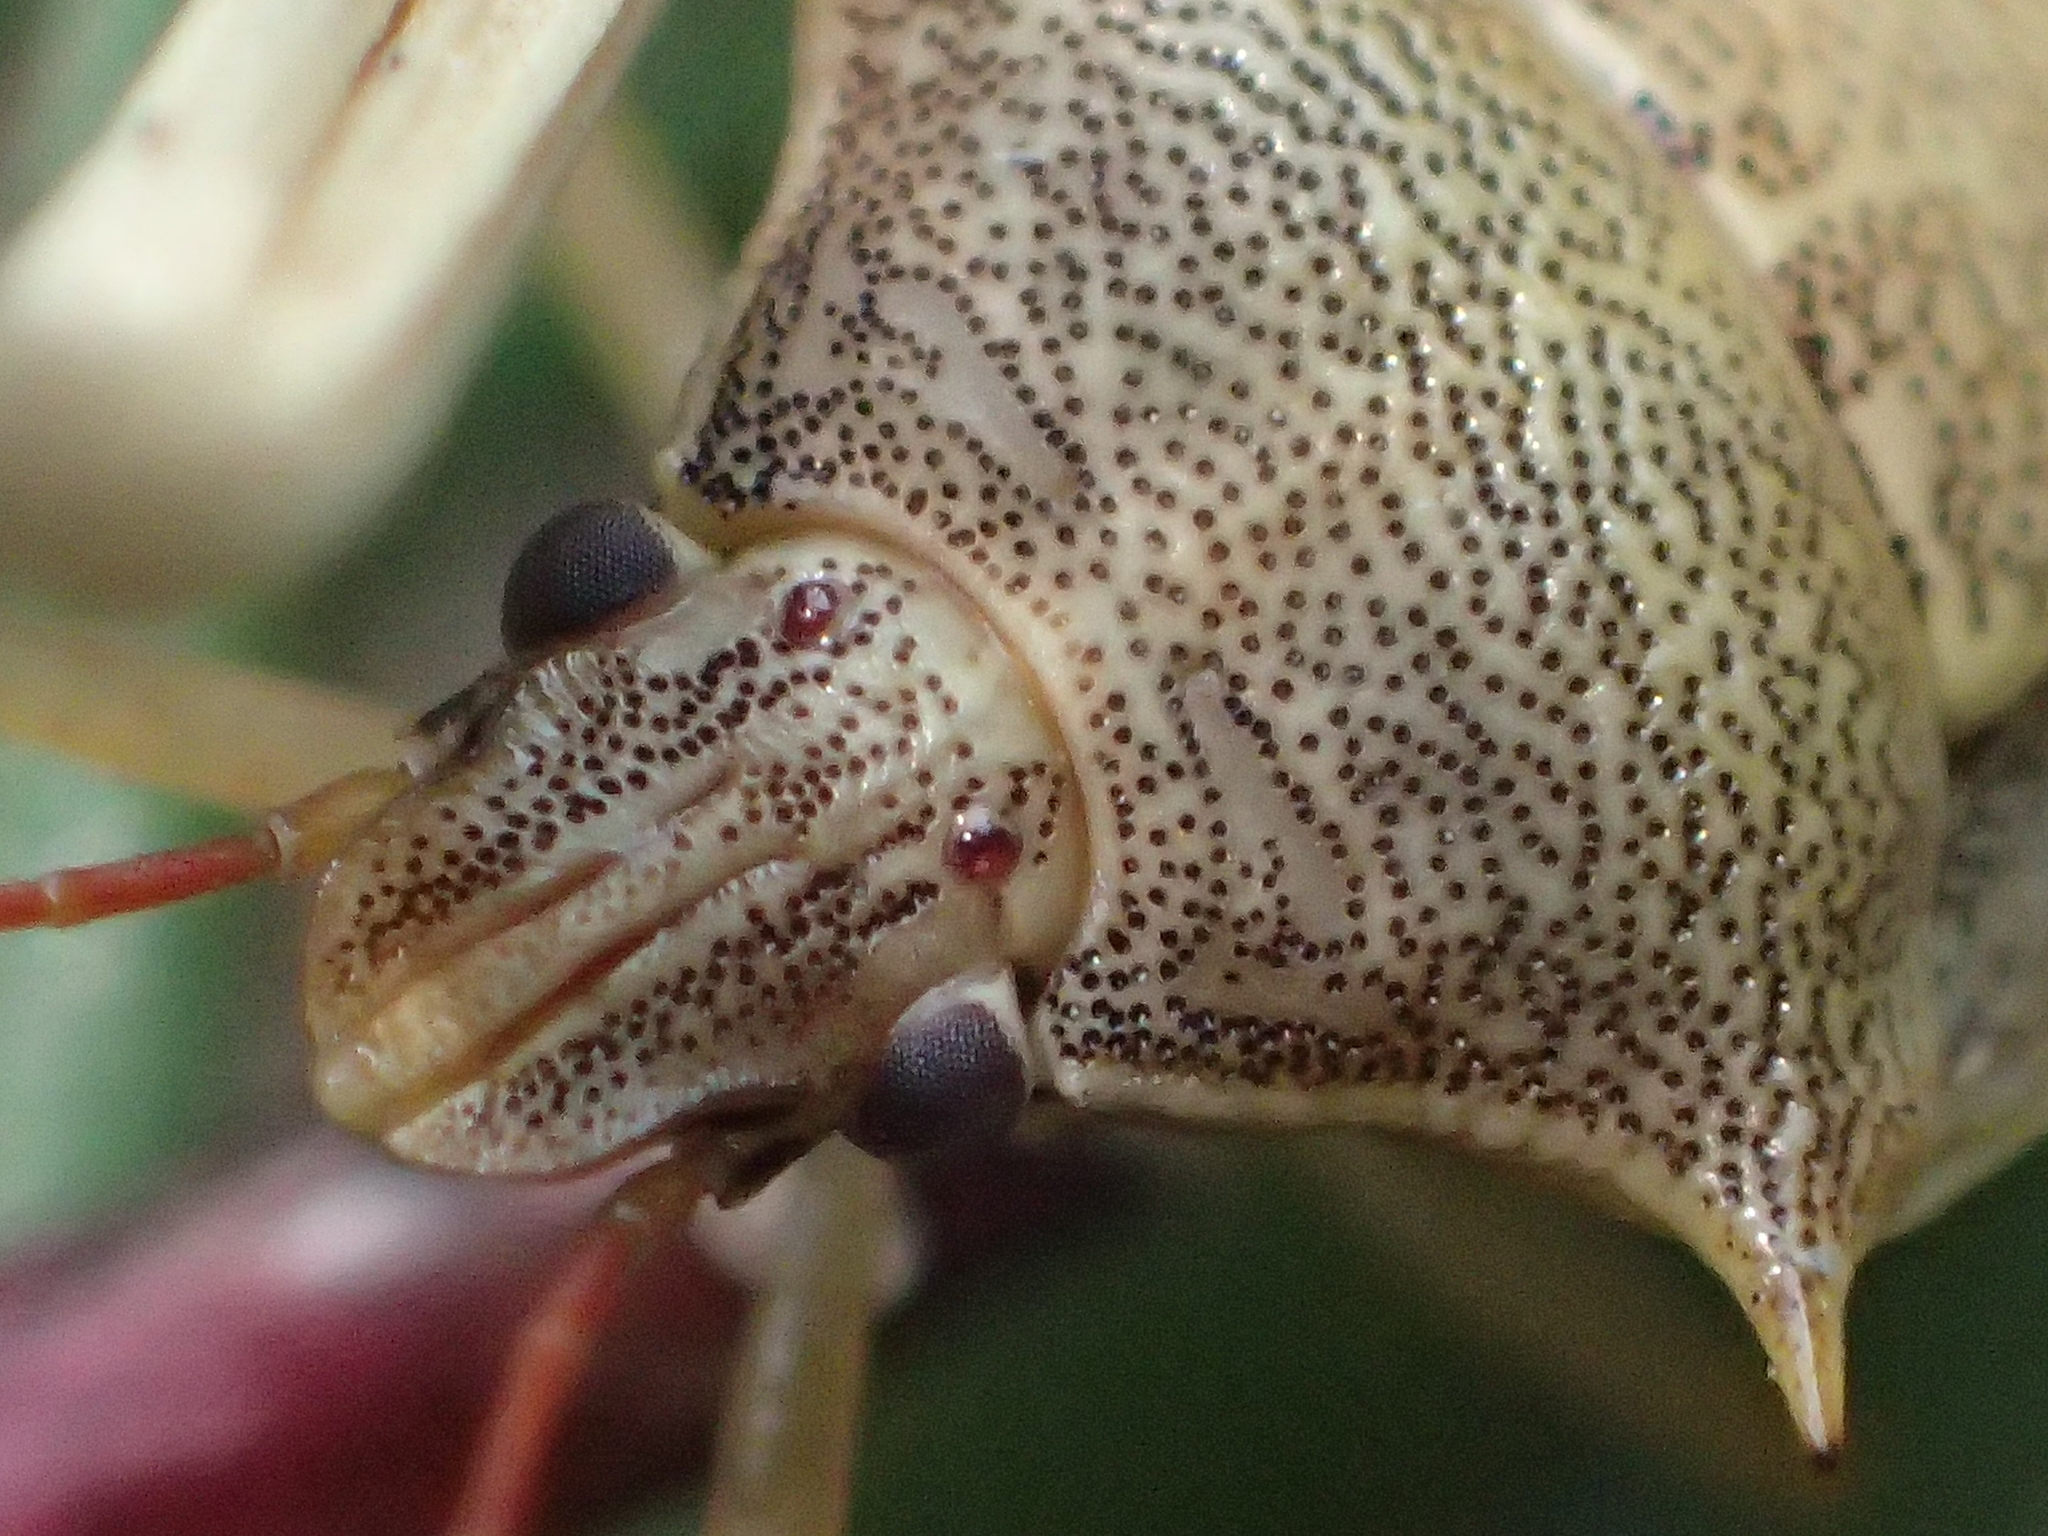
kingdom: Animalia
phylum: Arthropoda
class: Insecta
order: Hemiptera
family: Pentatomidae
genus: Oebalus
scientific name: Oebalus pugnax
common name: Rice stink bug
